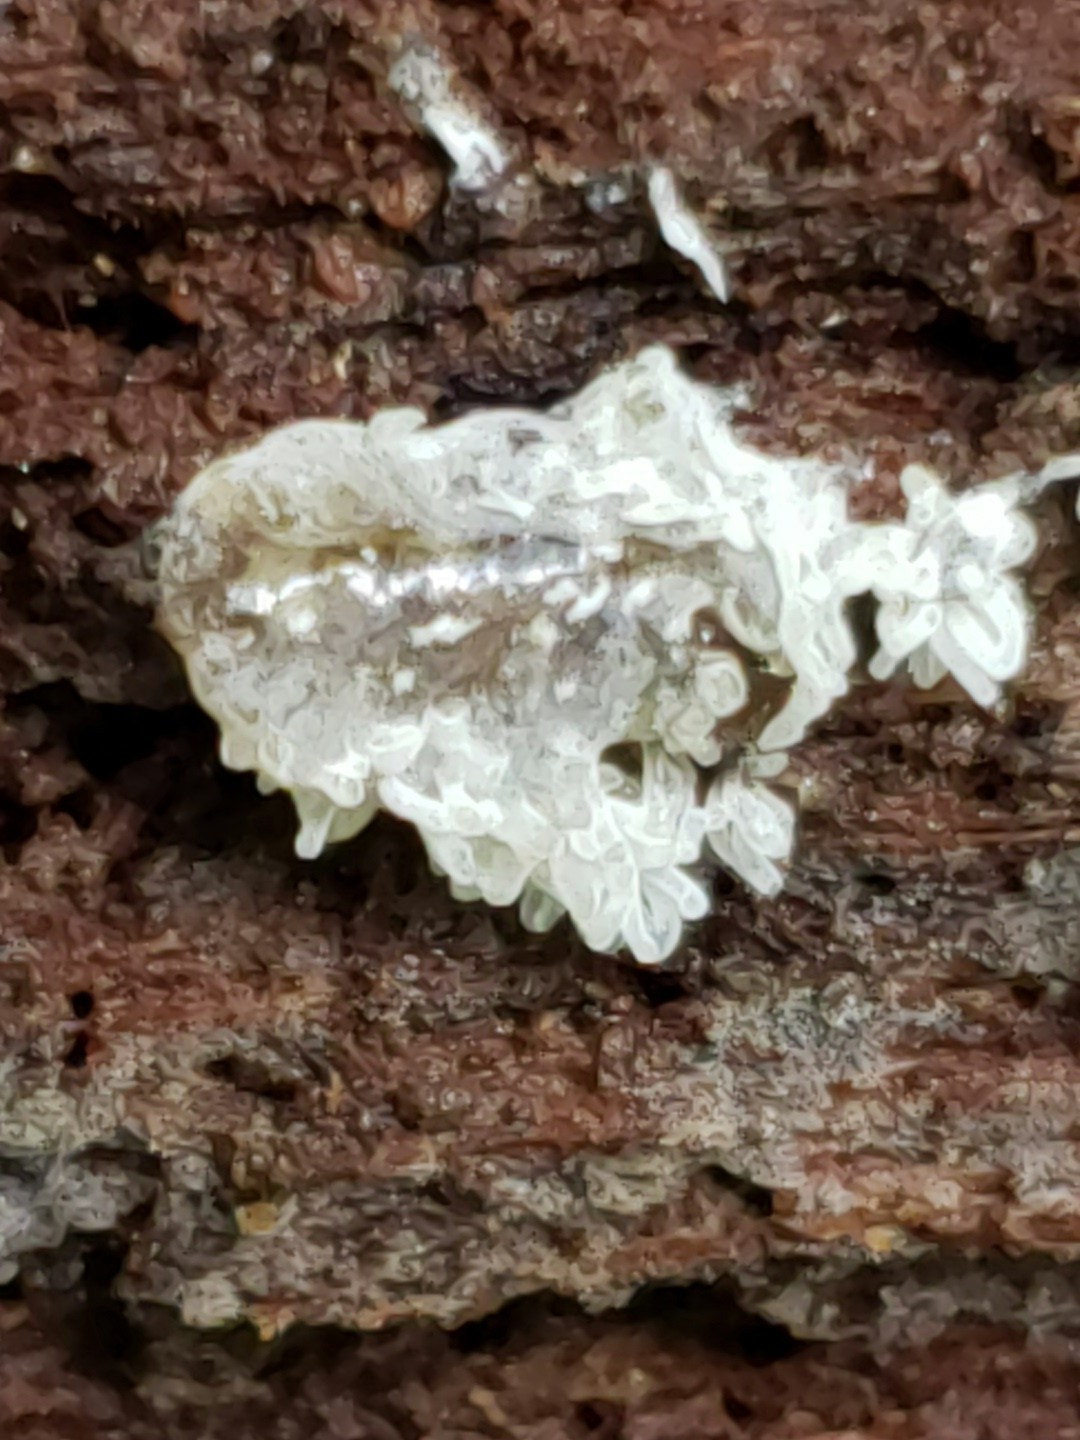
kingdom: Protozoa
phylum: Mycetozoa
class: Protosteliomycetes
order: Ceratiomyxales
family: Ceratiomyxaceae
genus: Ceratiomyxa
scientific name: Ceratiomyxa fruticulosa
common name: Honeycomb coral slime mold
